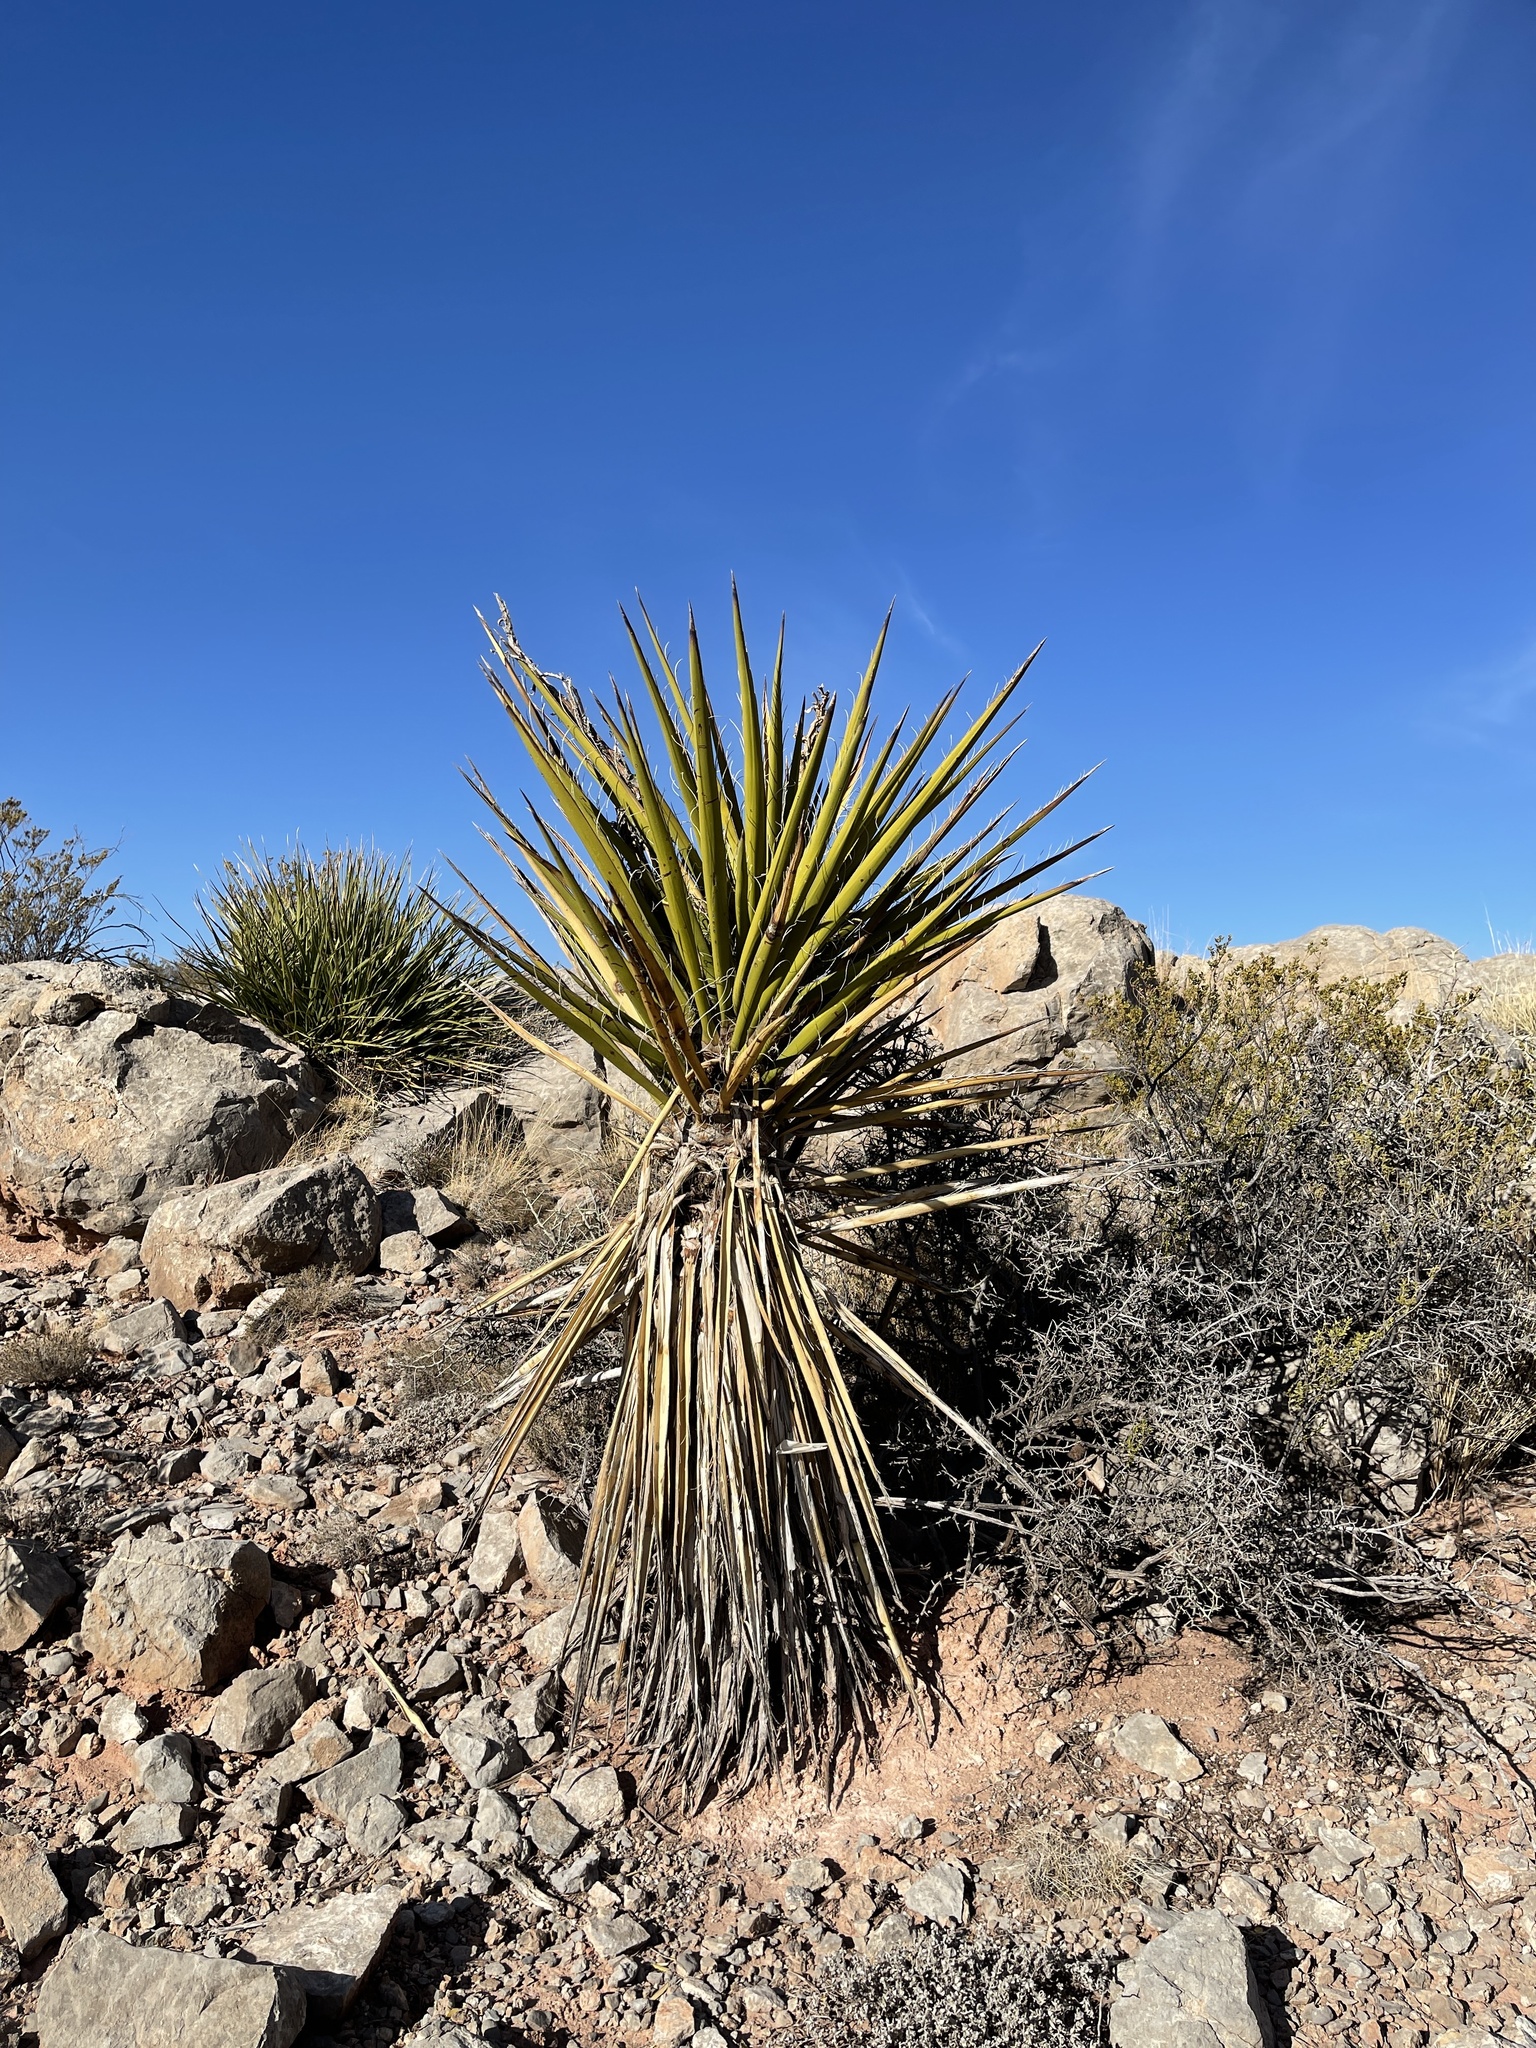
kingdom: Plantae
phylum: Tracheophyta
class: Liliopsida
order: Asparagales
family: Asparagaceae
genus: Yucca
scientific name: Yucca treculiana
